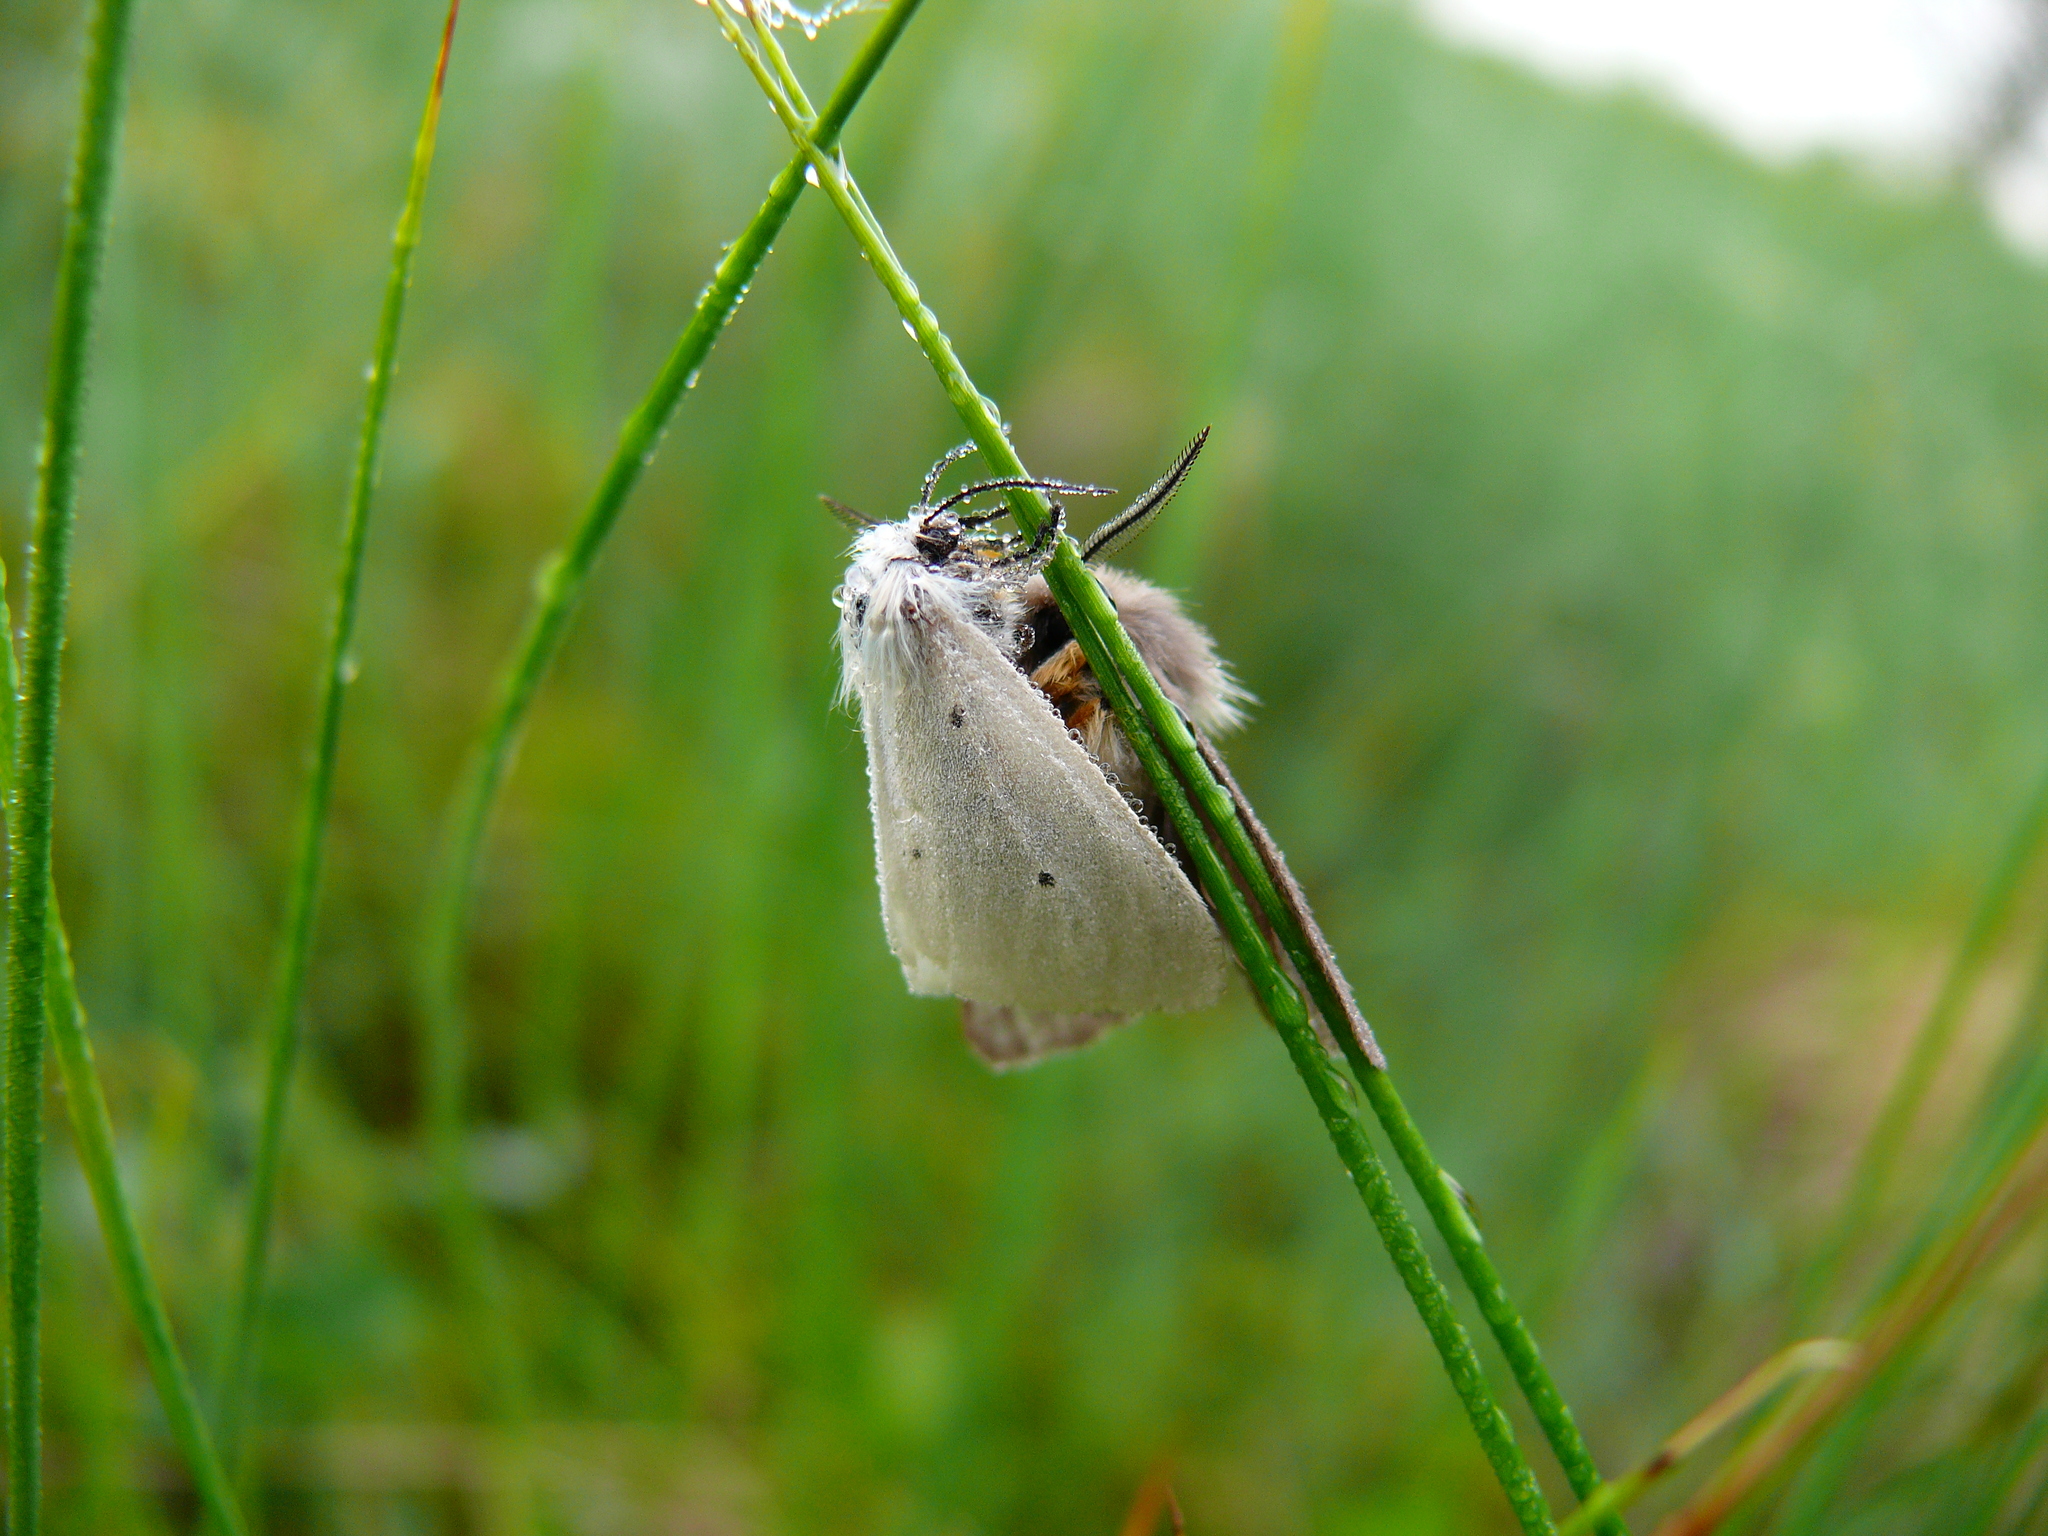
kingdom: Animalia
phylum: Arthropoda
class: Insecta
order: Lepidoptera
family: Erebidae
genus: Diaphora
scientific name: Diaphora mendica
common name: Muslin moth
